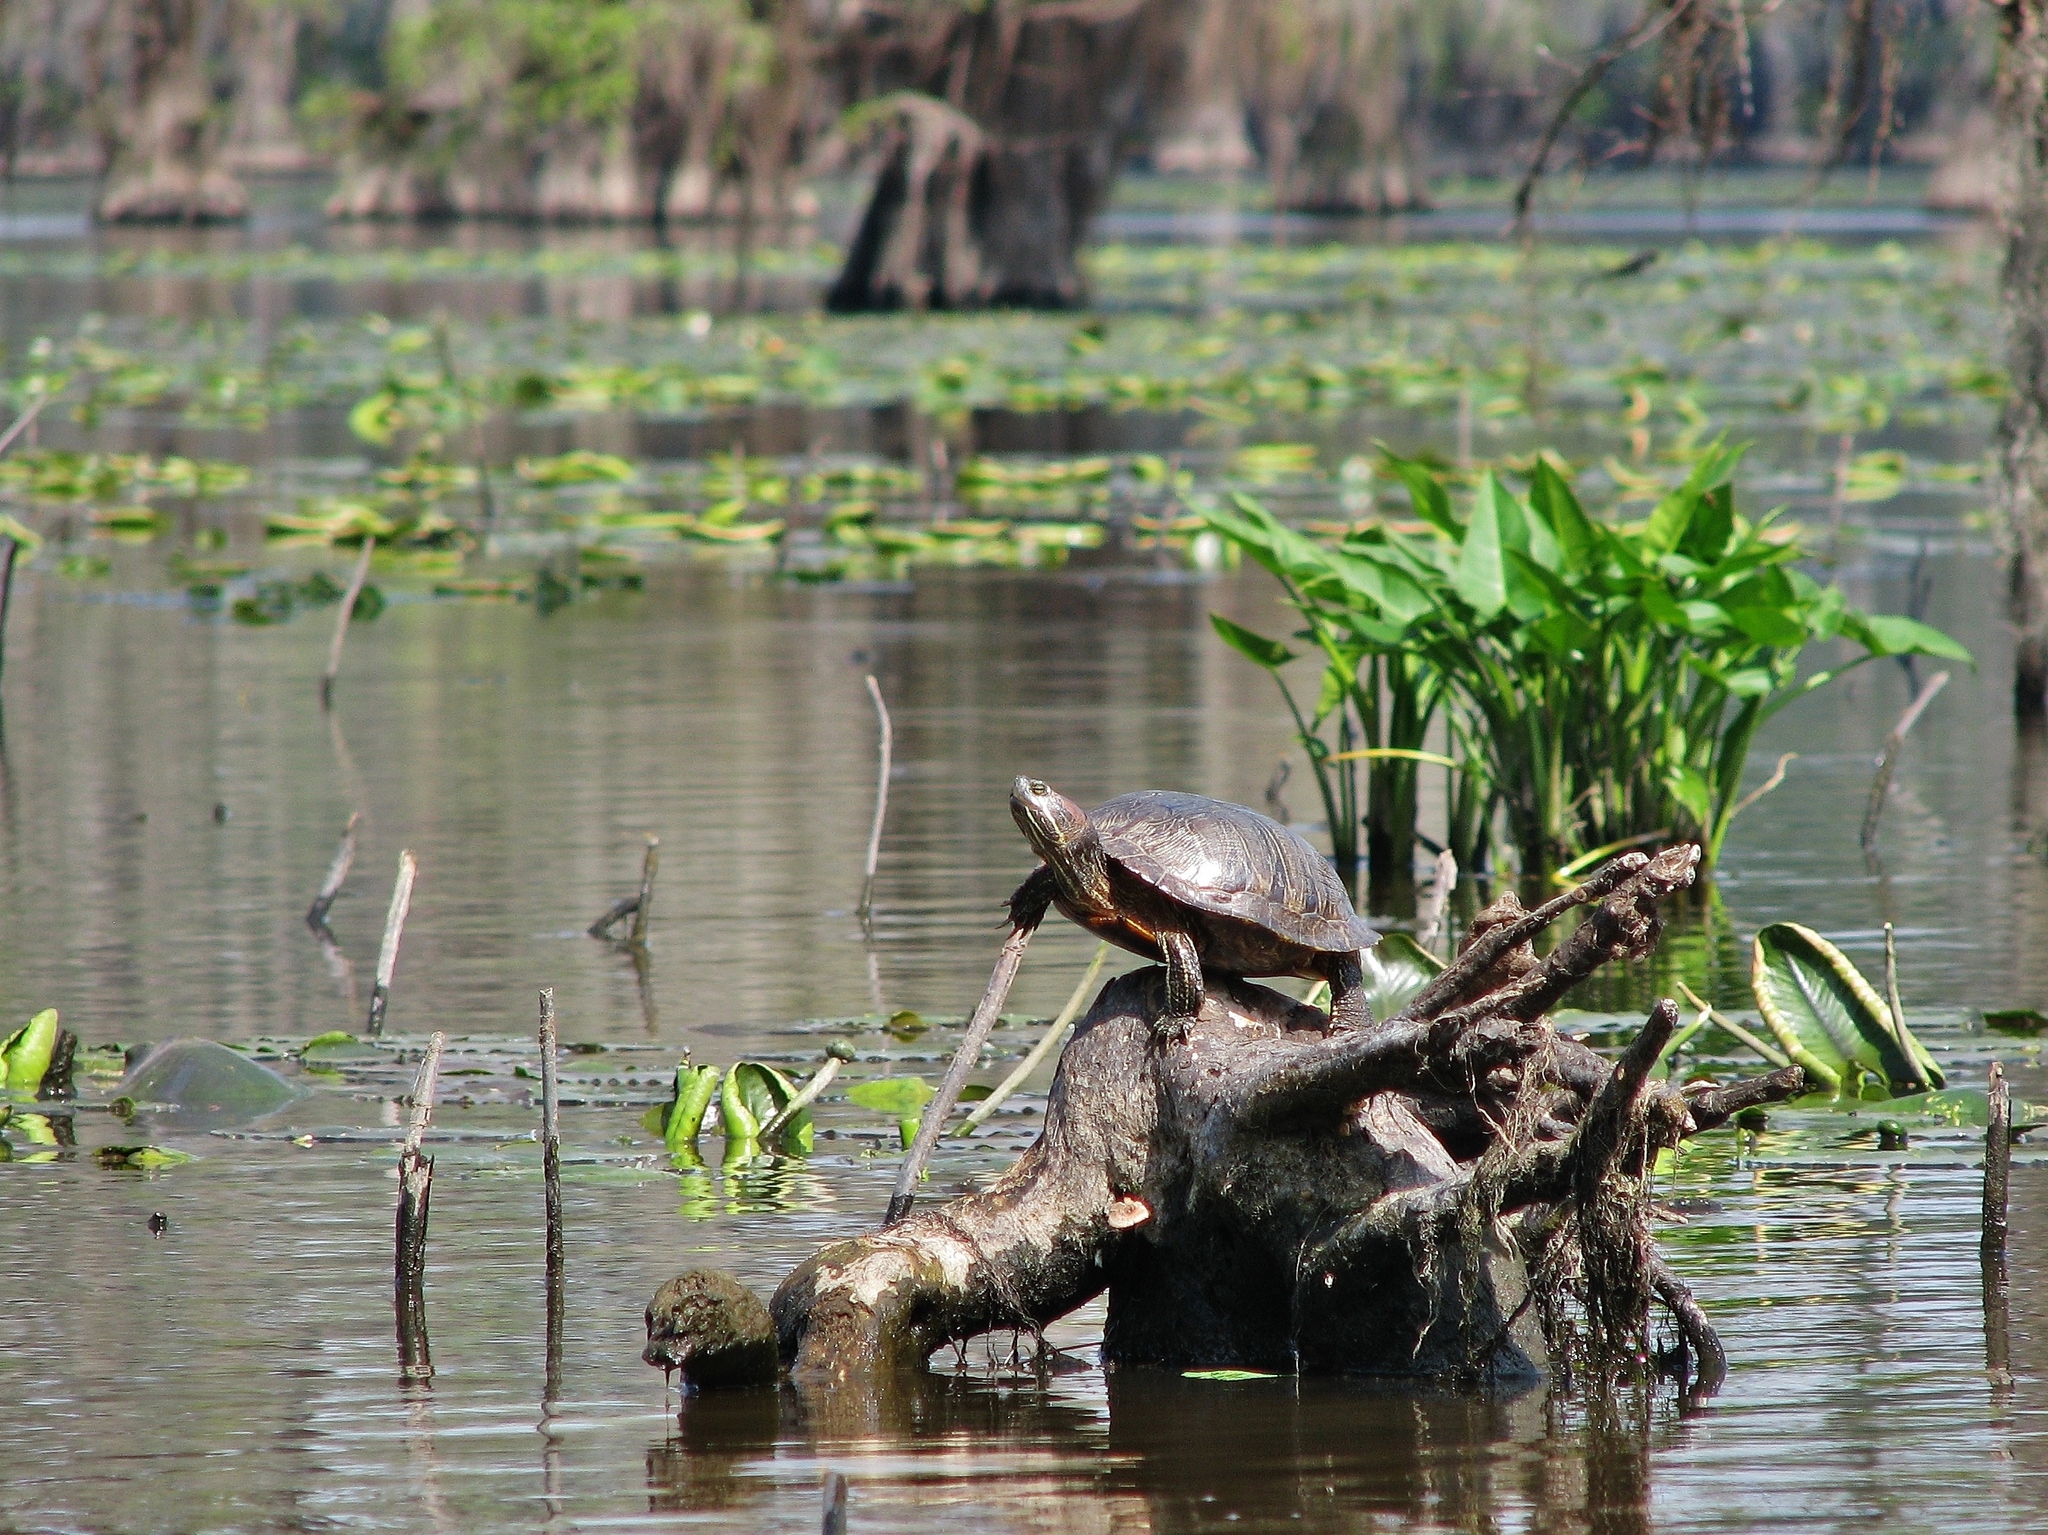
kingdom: Animalia
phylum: Chordata
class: Testudines
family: Emydidae
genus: Trachemys
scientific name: Trachemys scripta
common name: Slider
